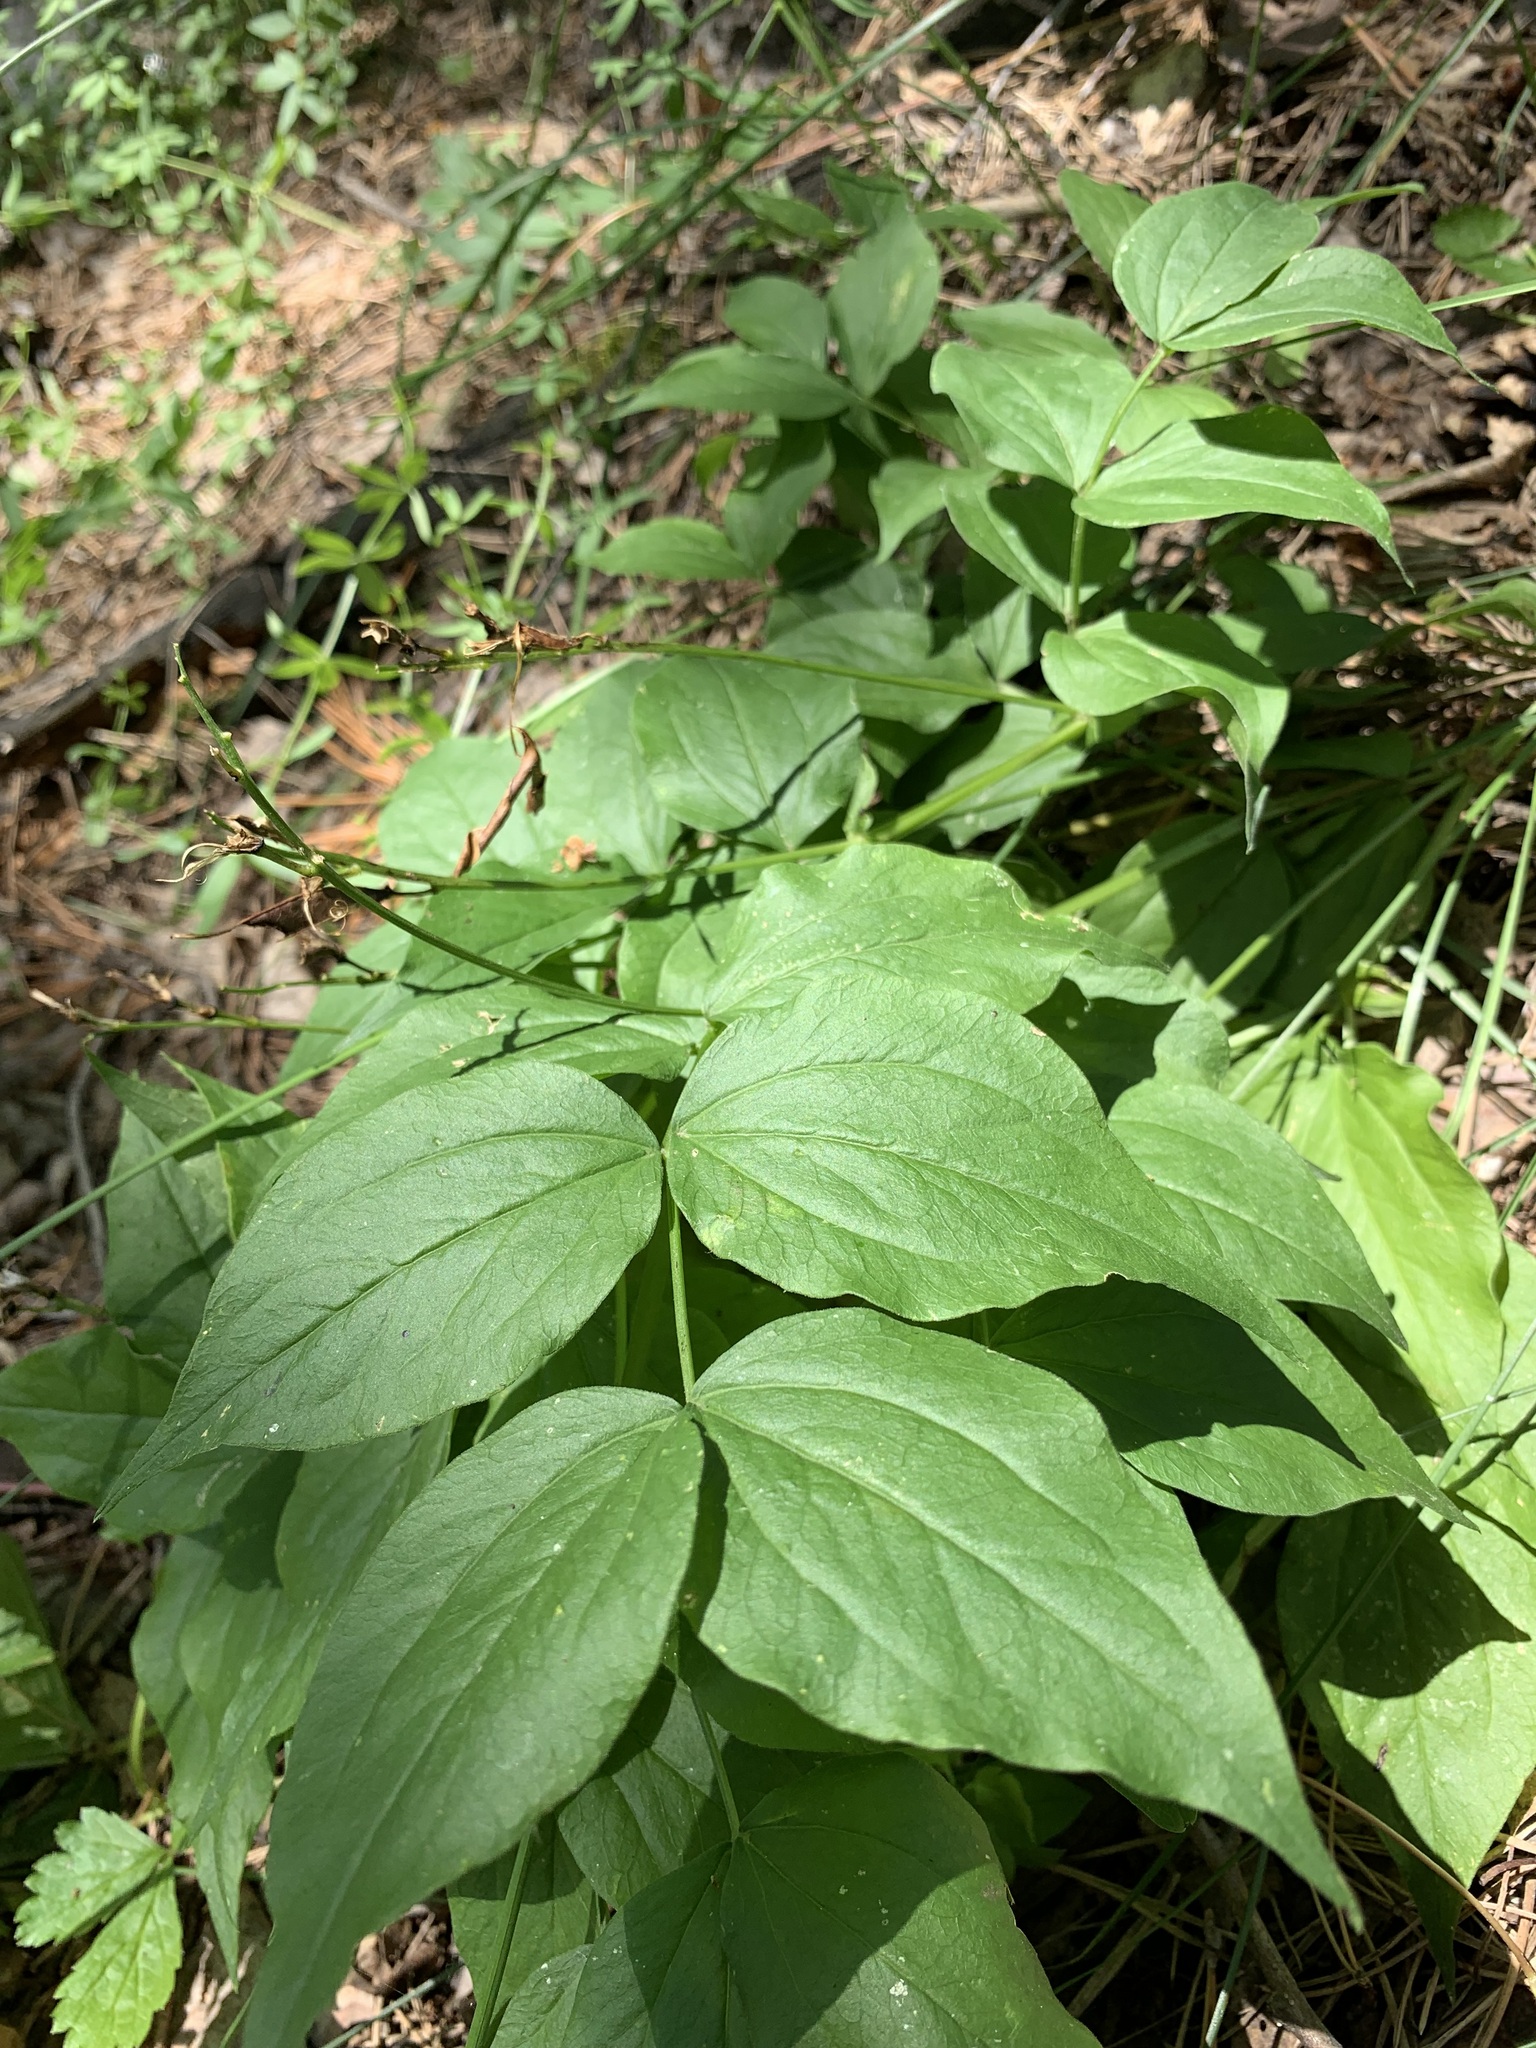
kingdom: Plantae
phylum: Tracheophyta
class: Magnoliopsida
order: Fabales
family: Fabaceae
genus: Lathyrus
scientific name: Lathyrus vernus
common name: Spring pea
